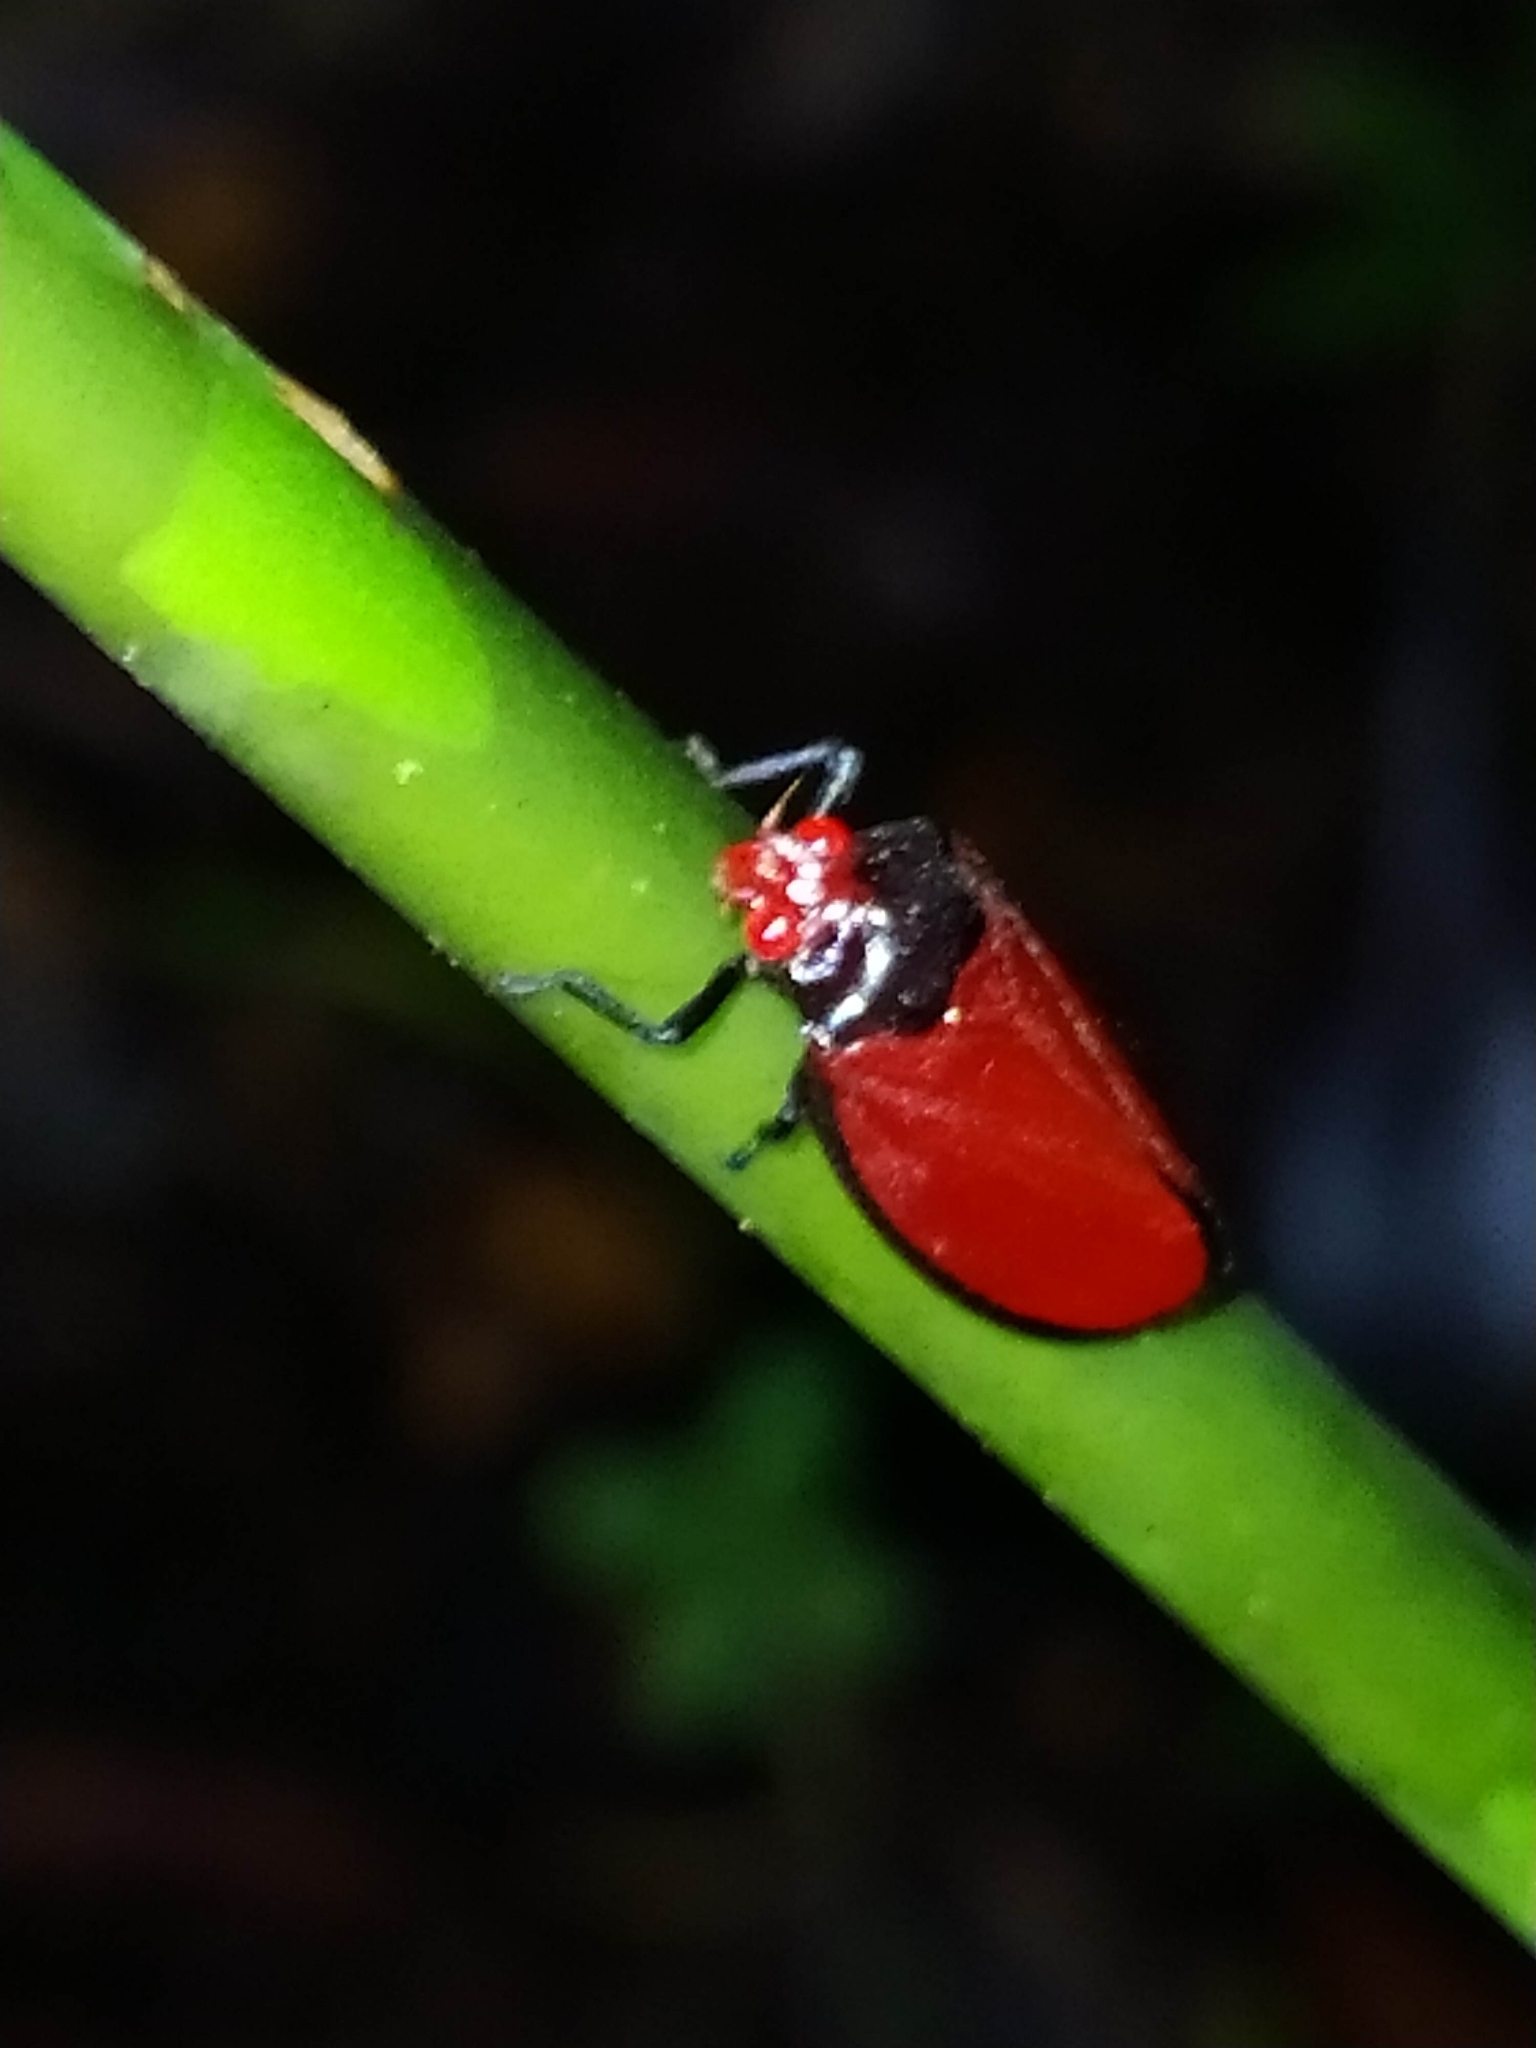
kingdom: Animalia
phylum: Arthropoda
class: Insecta
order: Hemiptera
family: Cercopidae
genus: Baetkia
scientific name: Baetkia maroniensis
